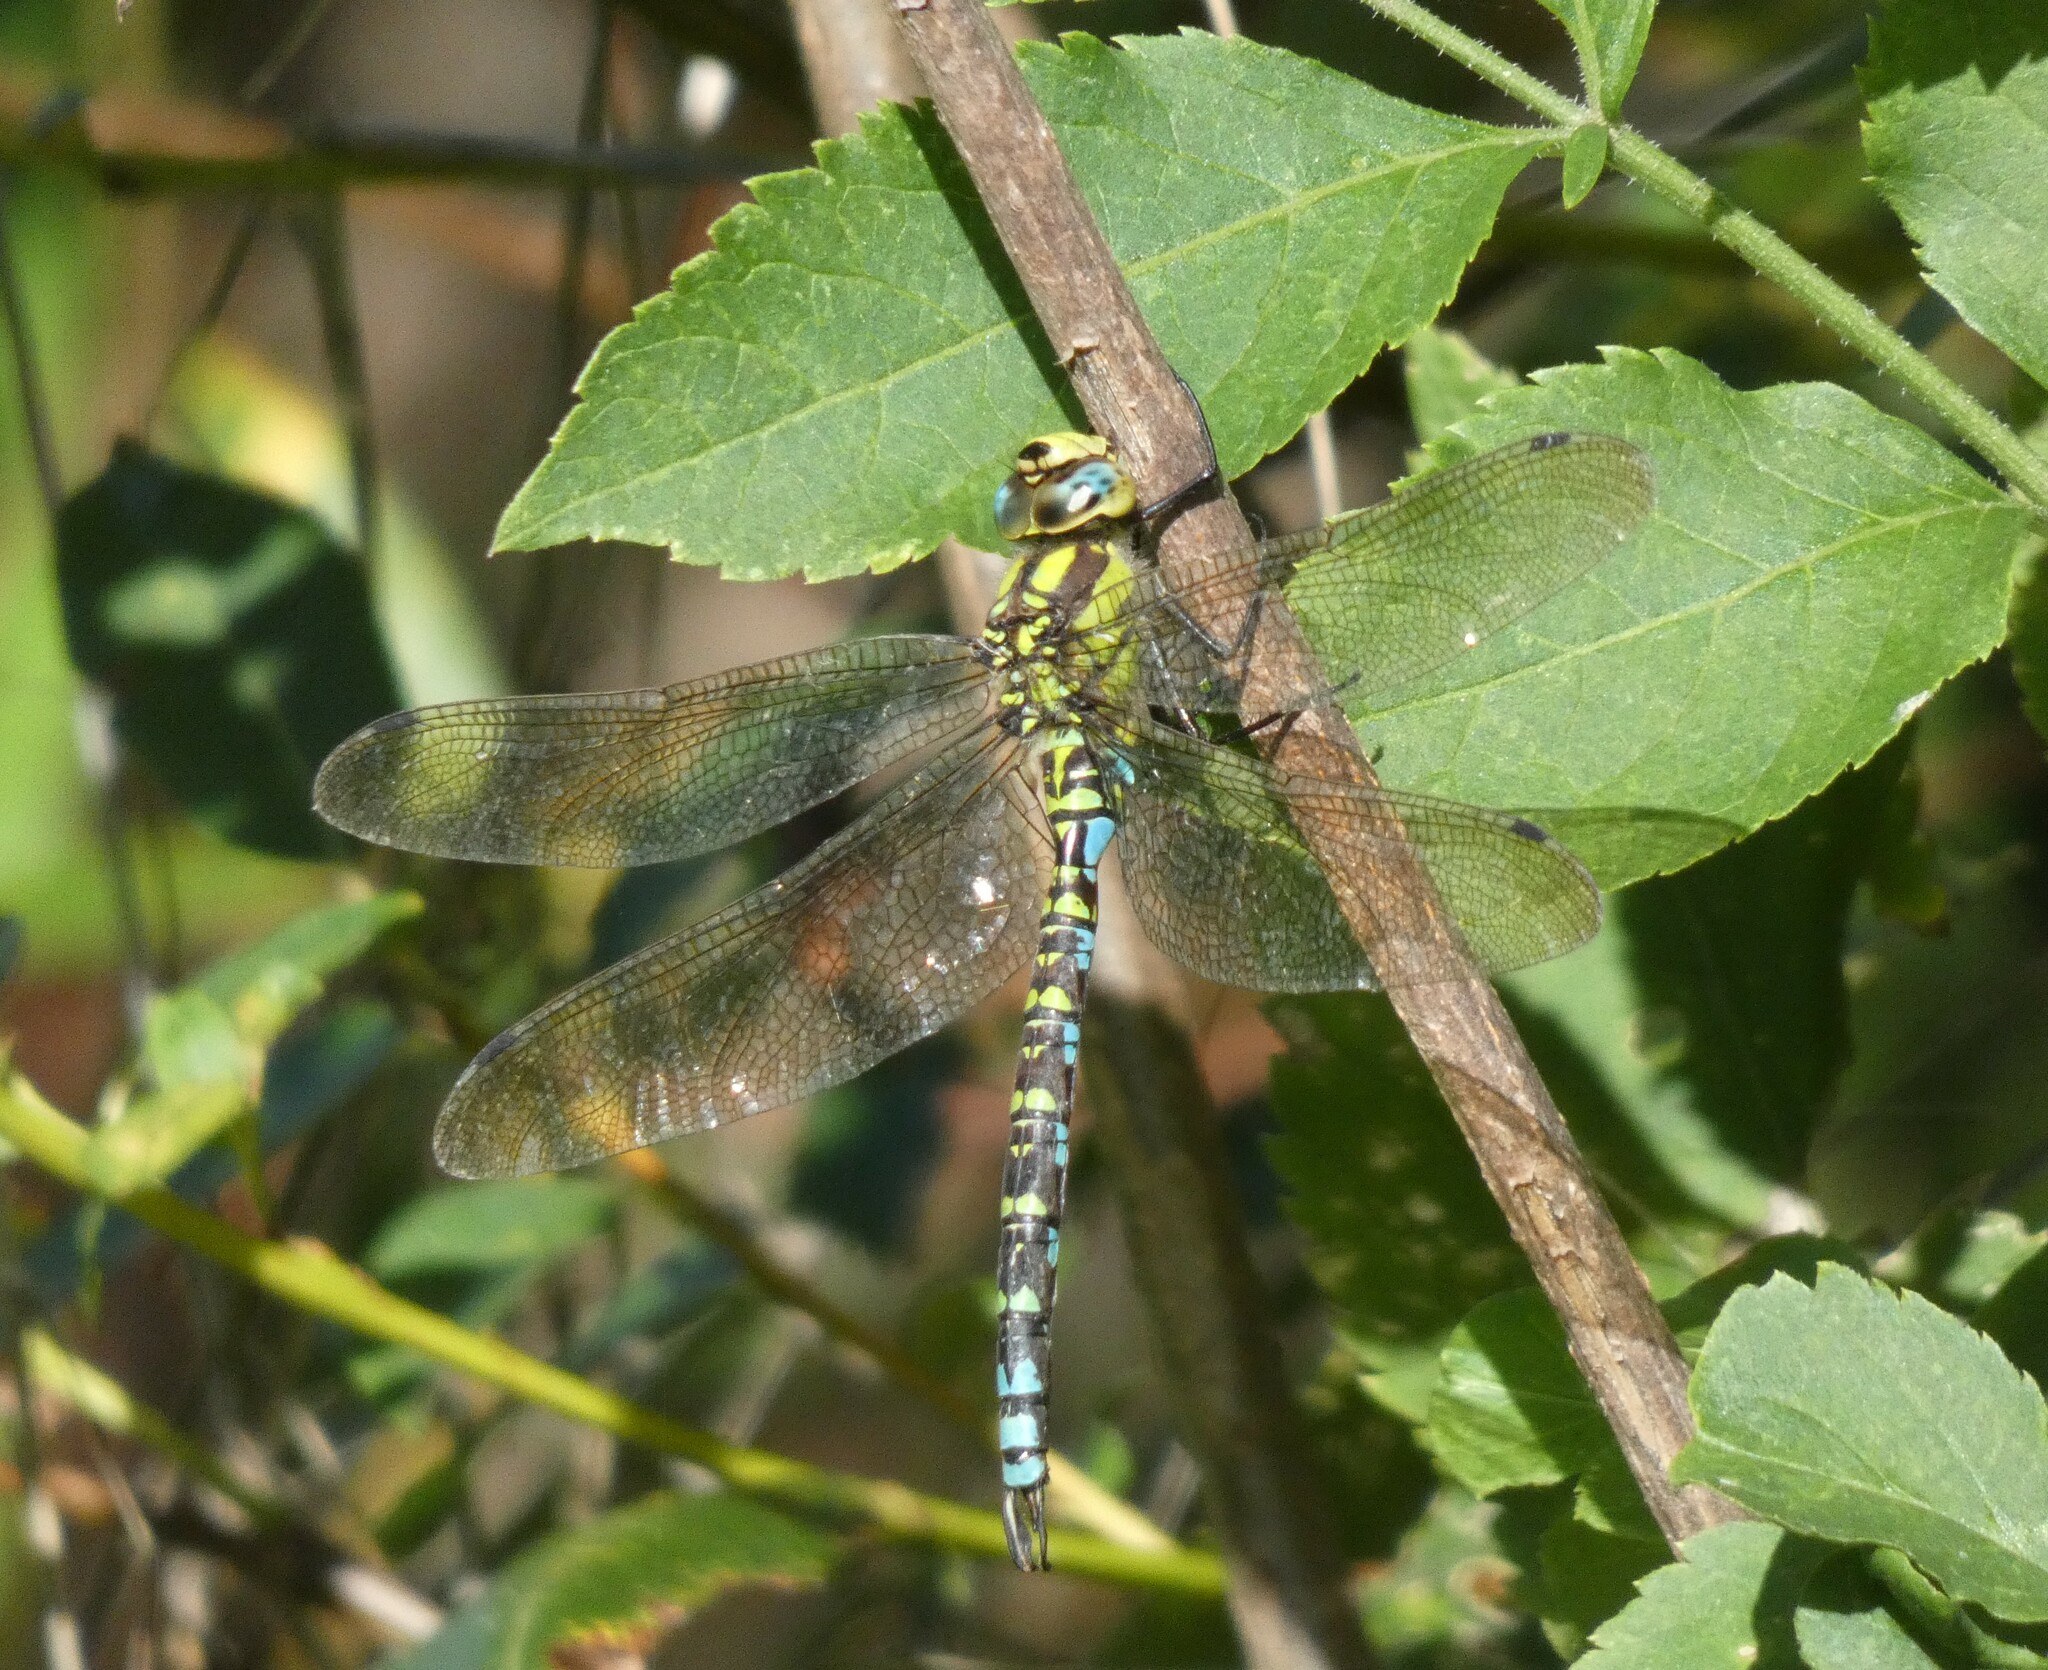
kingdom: Animalia
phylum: Arthropoda
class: Insecta
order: Odonata
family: Aeshnidae
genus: Aeshna
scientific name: Aeshna cyanea
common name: Southern hawker
